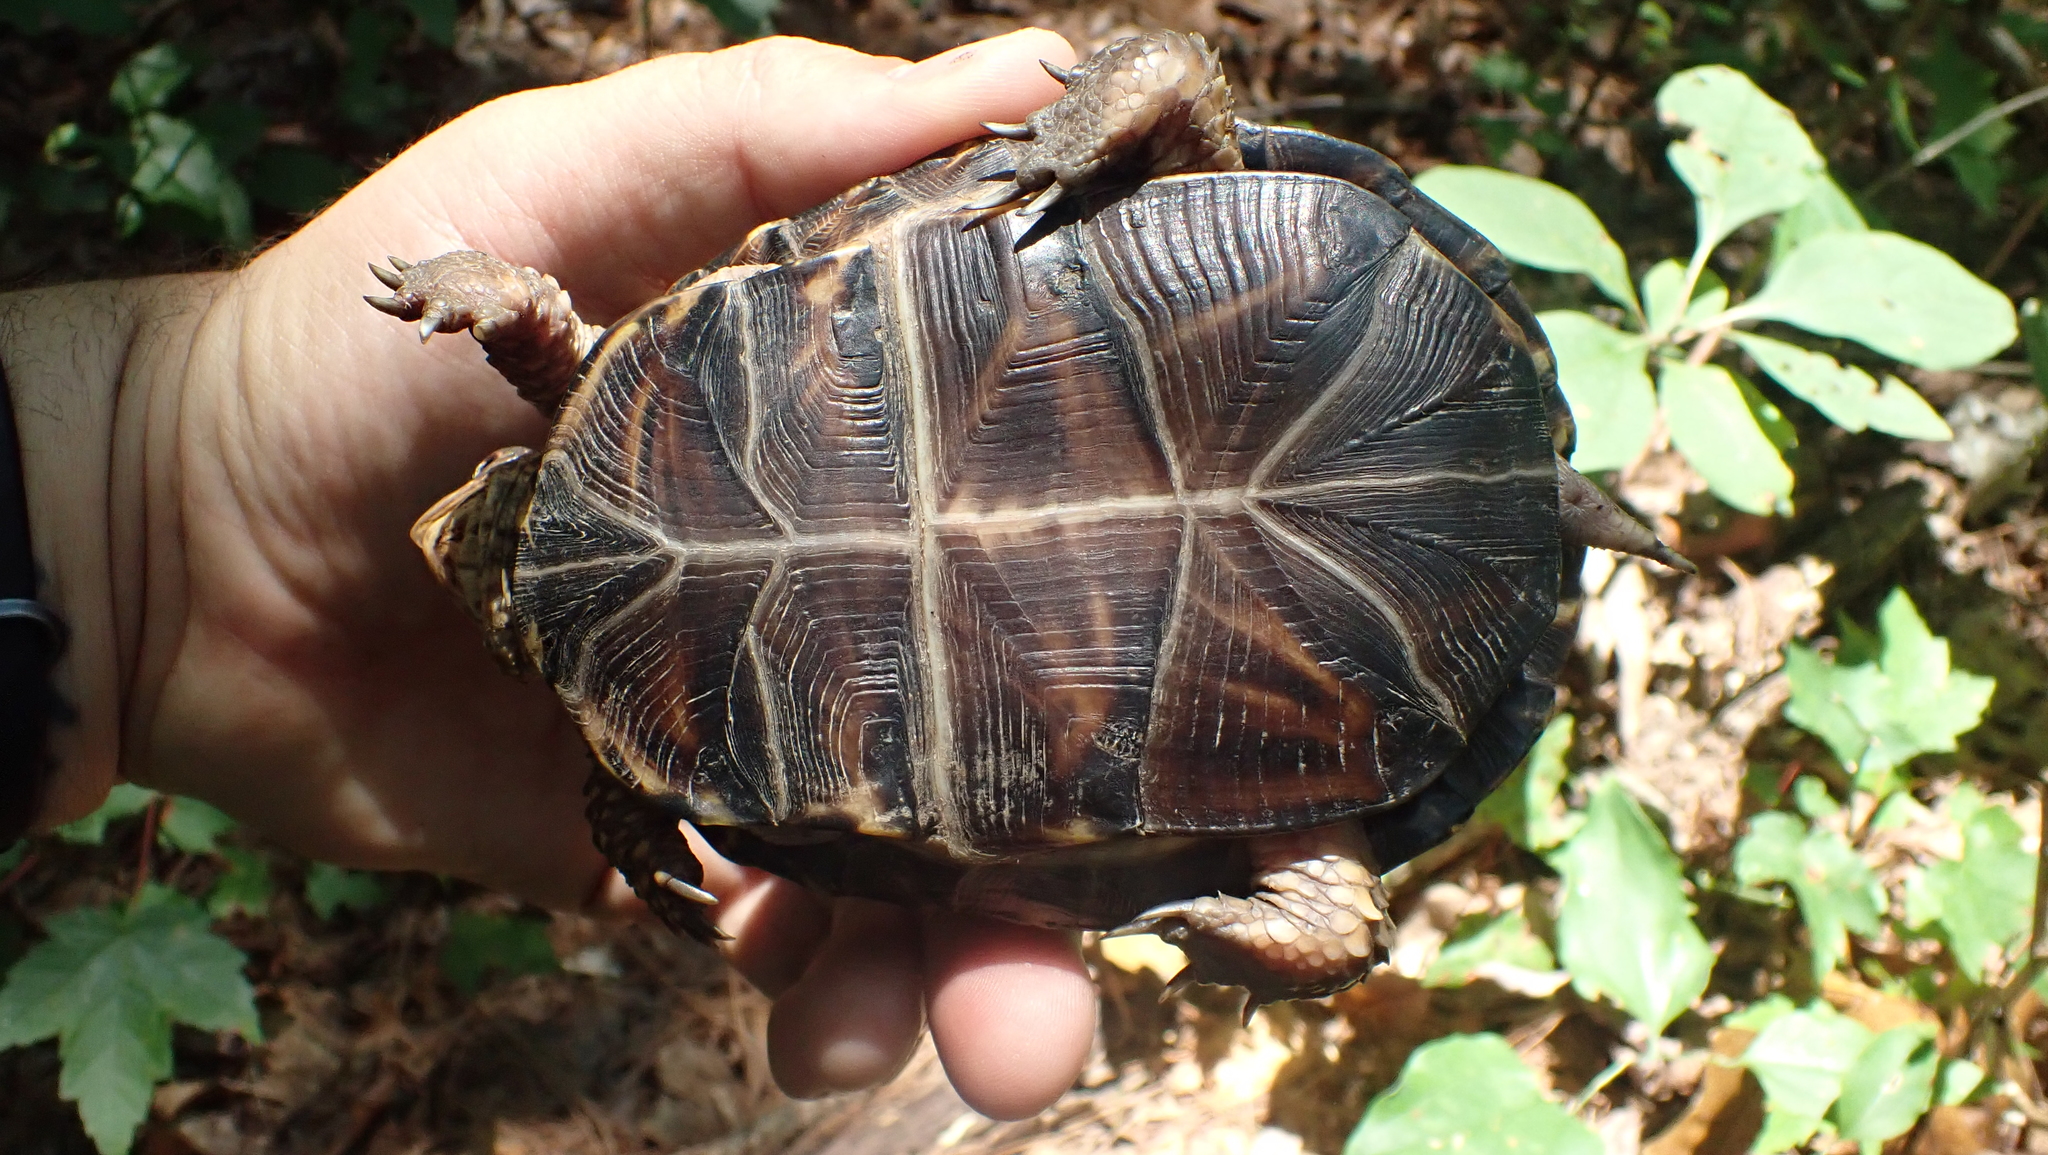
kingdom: Animalia
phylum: Chordata
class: Testudines
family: Emydidae
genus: Terrapene
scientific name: Terrapene carolina
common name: Common box turtle
